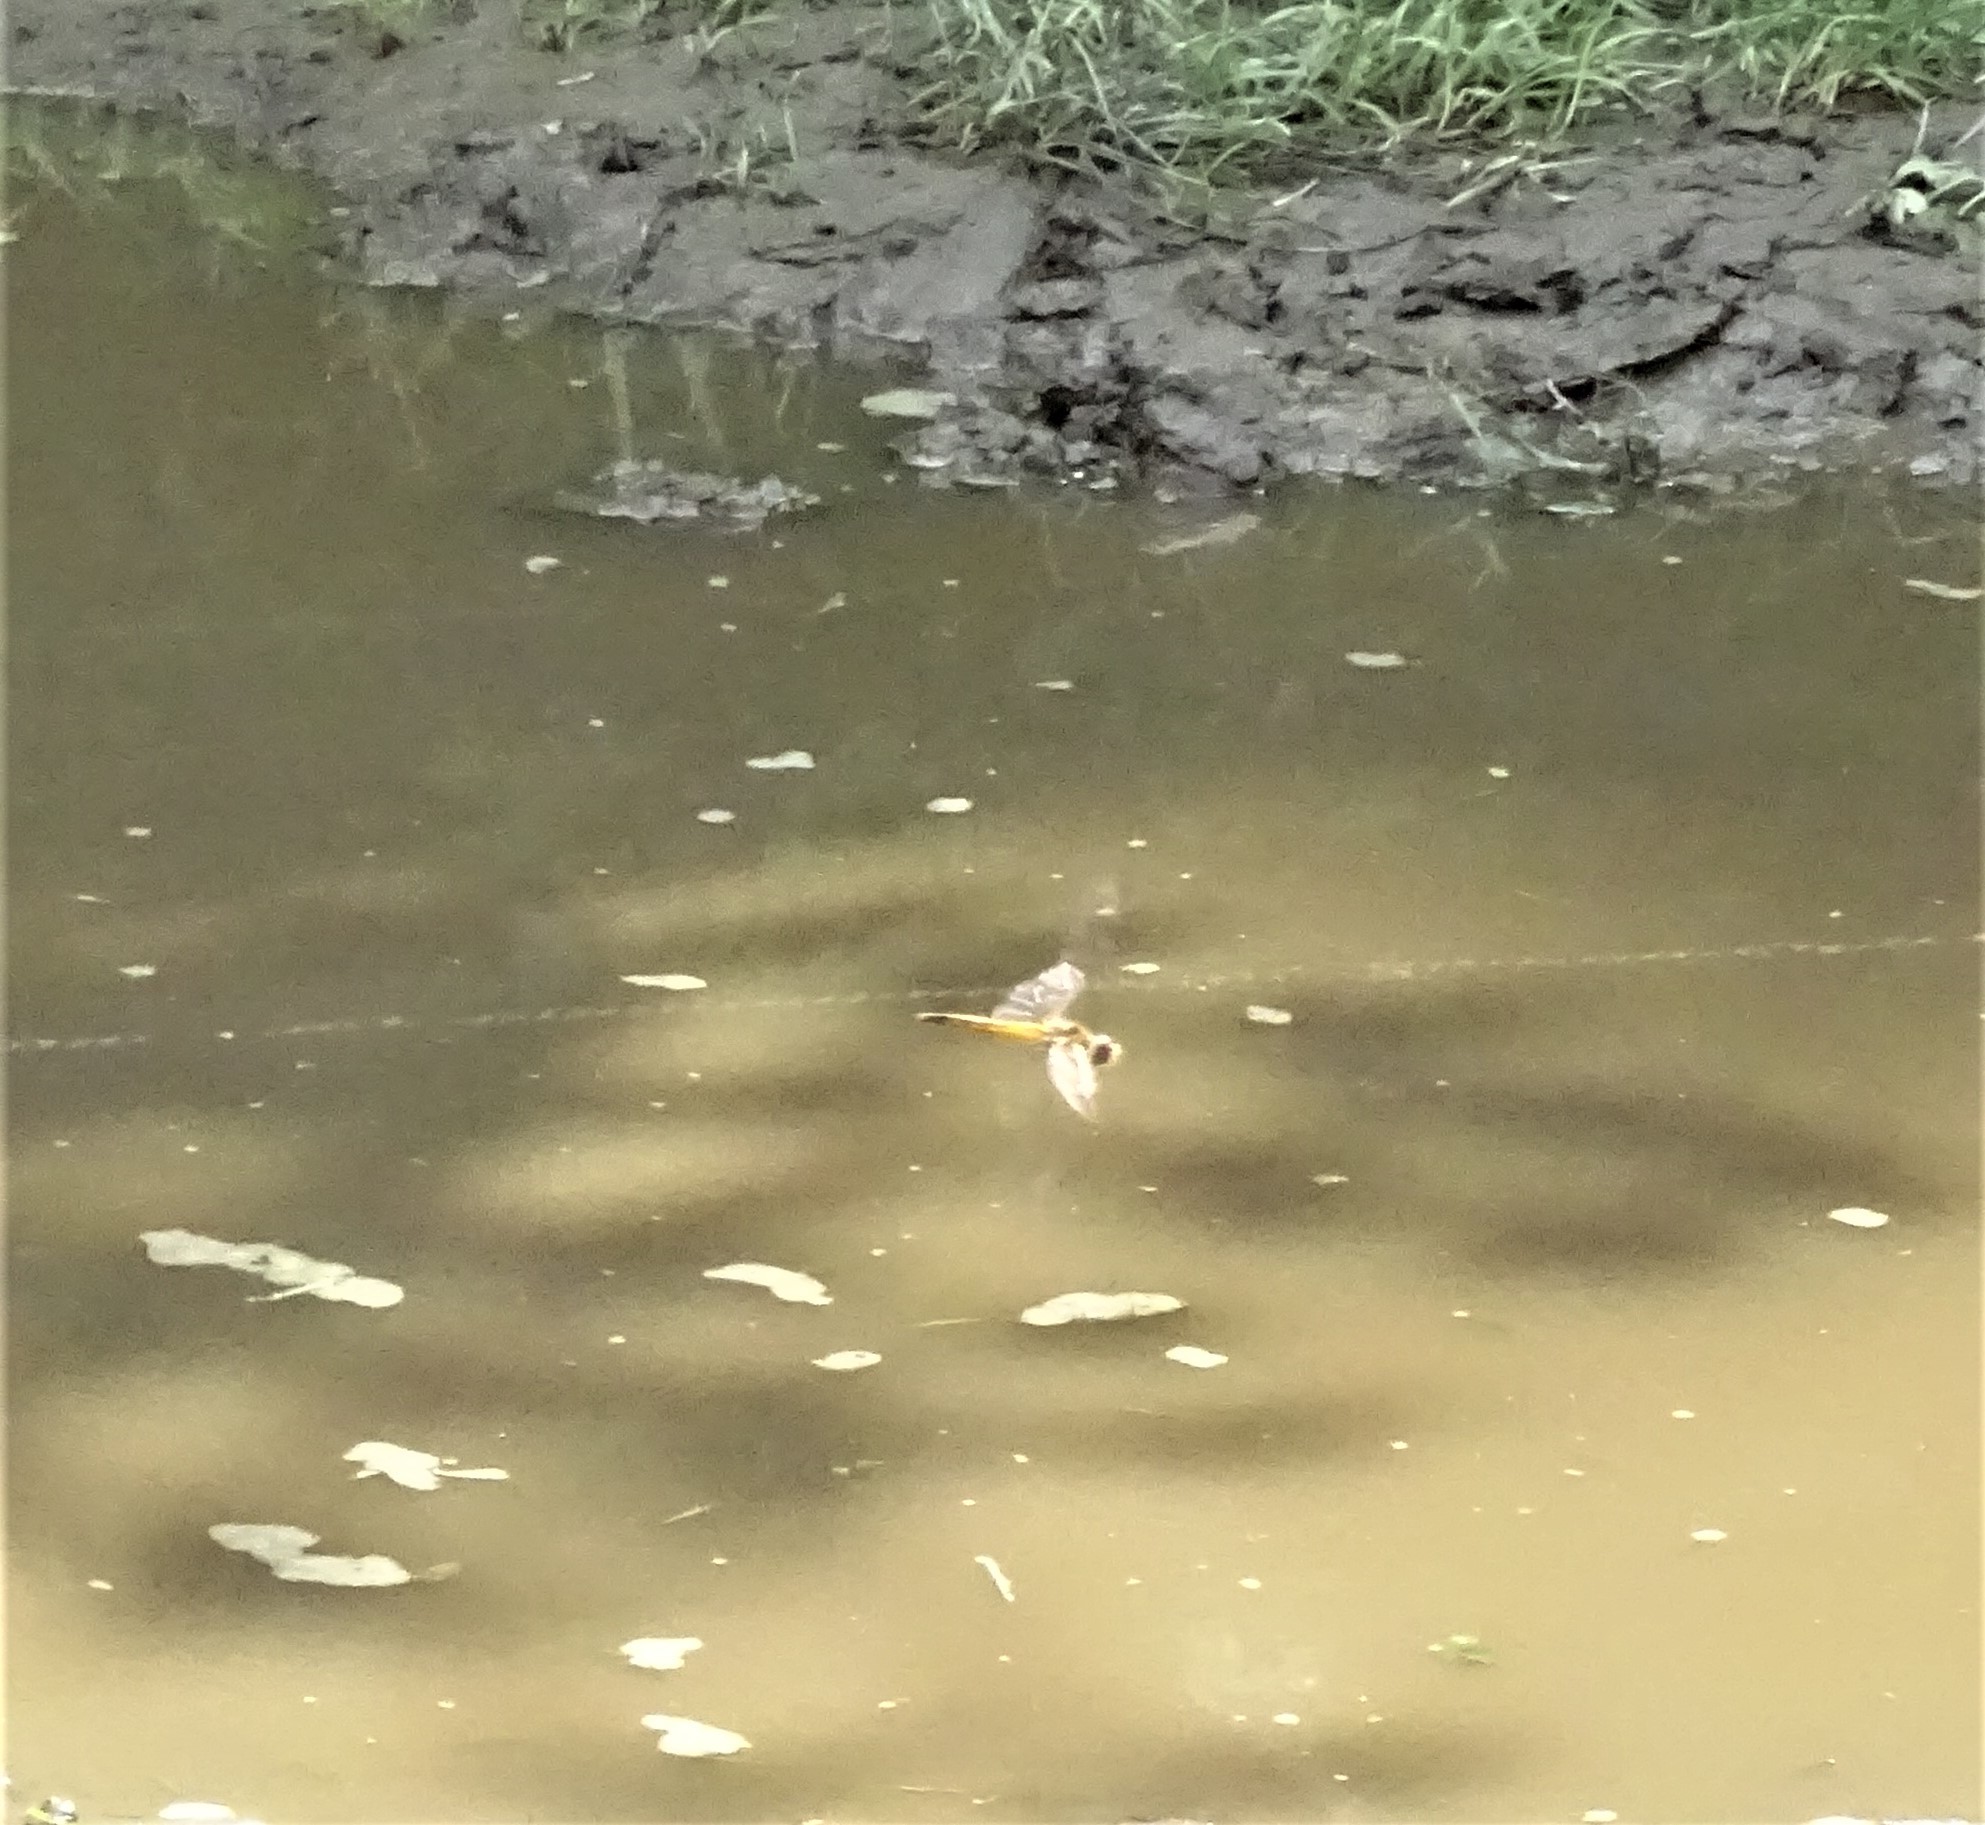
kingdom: Animalia
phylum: Arthropoda
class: Insecta
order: Odonata
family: Libellulidae
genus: Pantala
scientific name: Pantala flavescens
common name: Wandering glider
